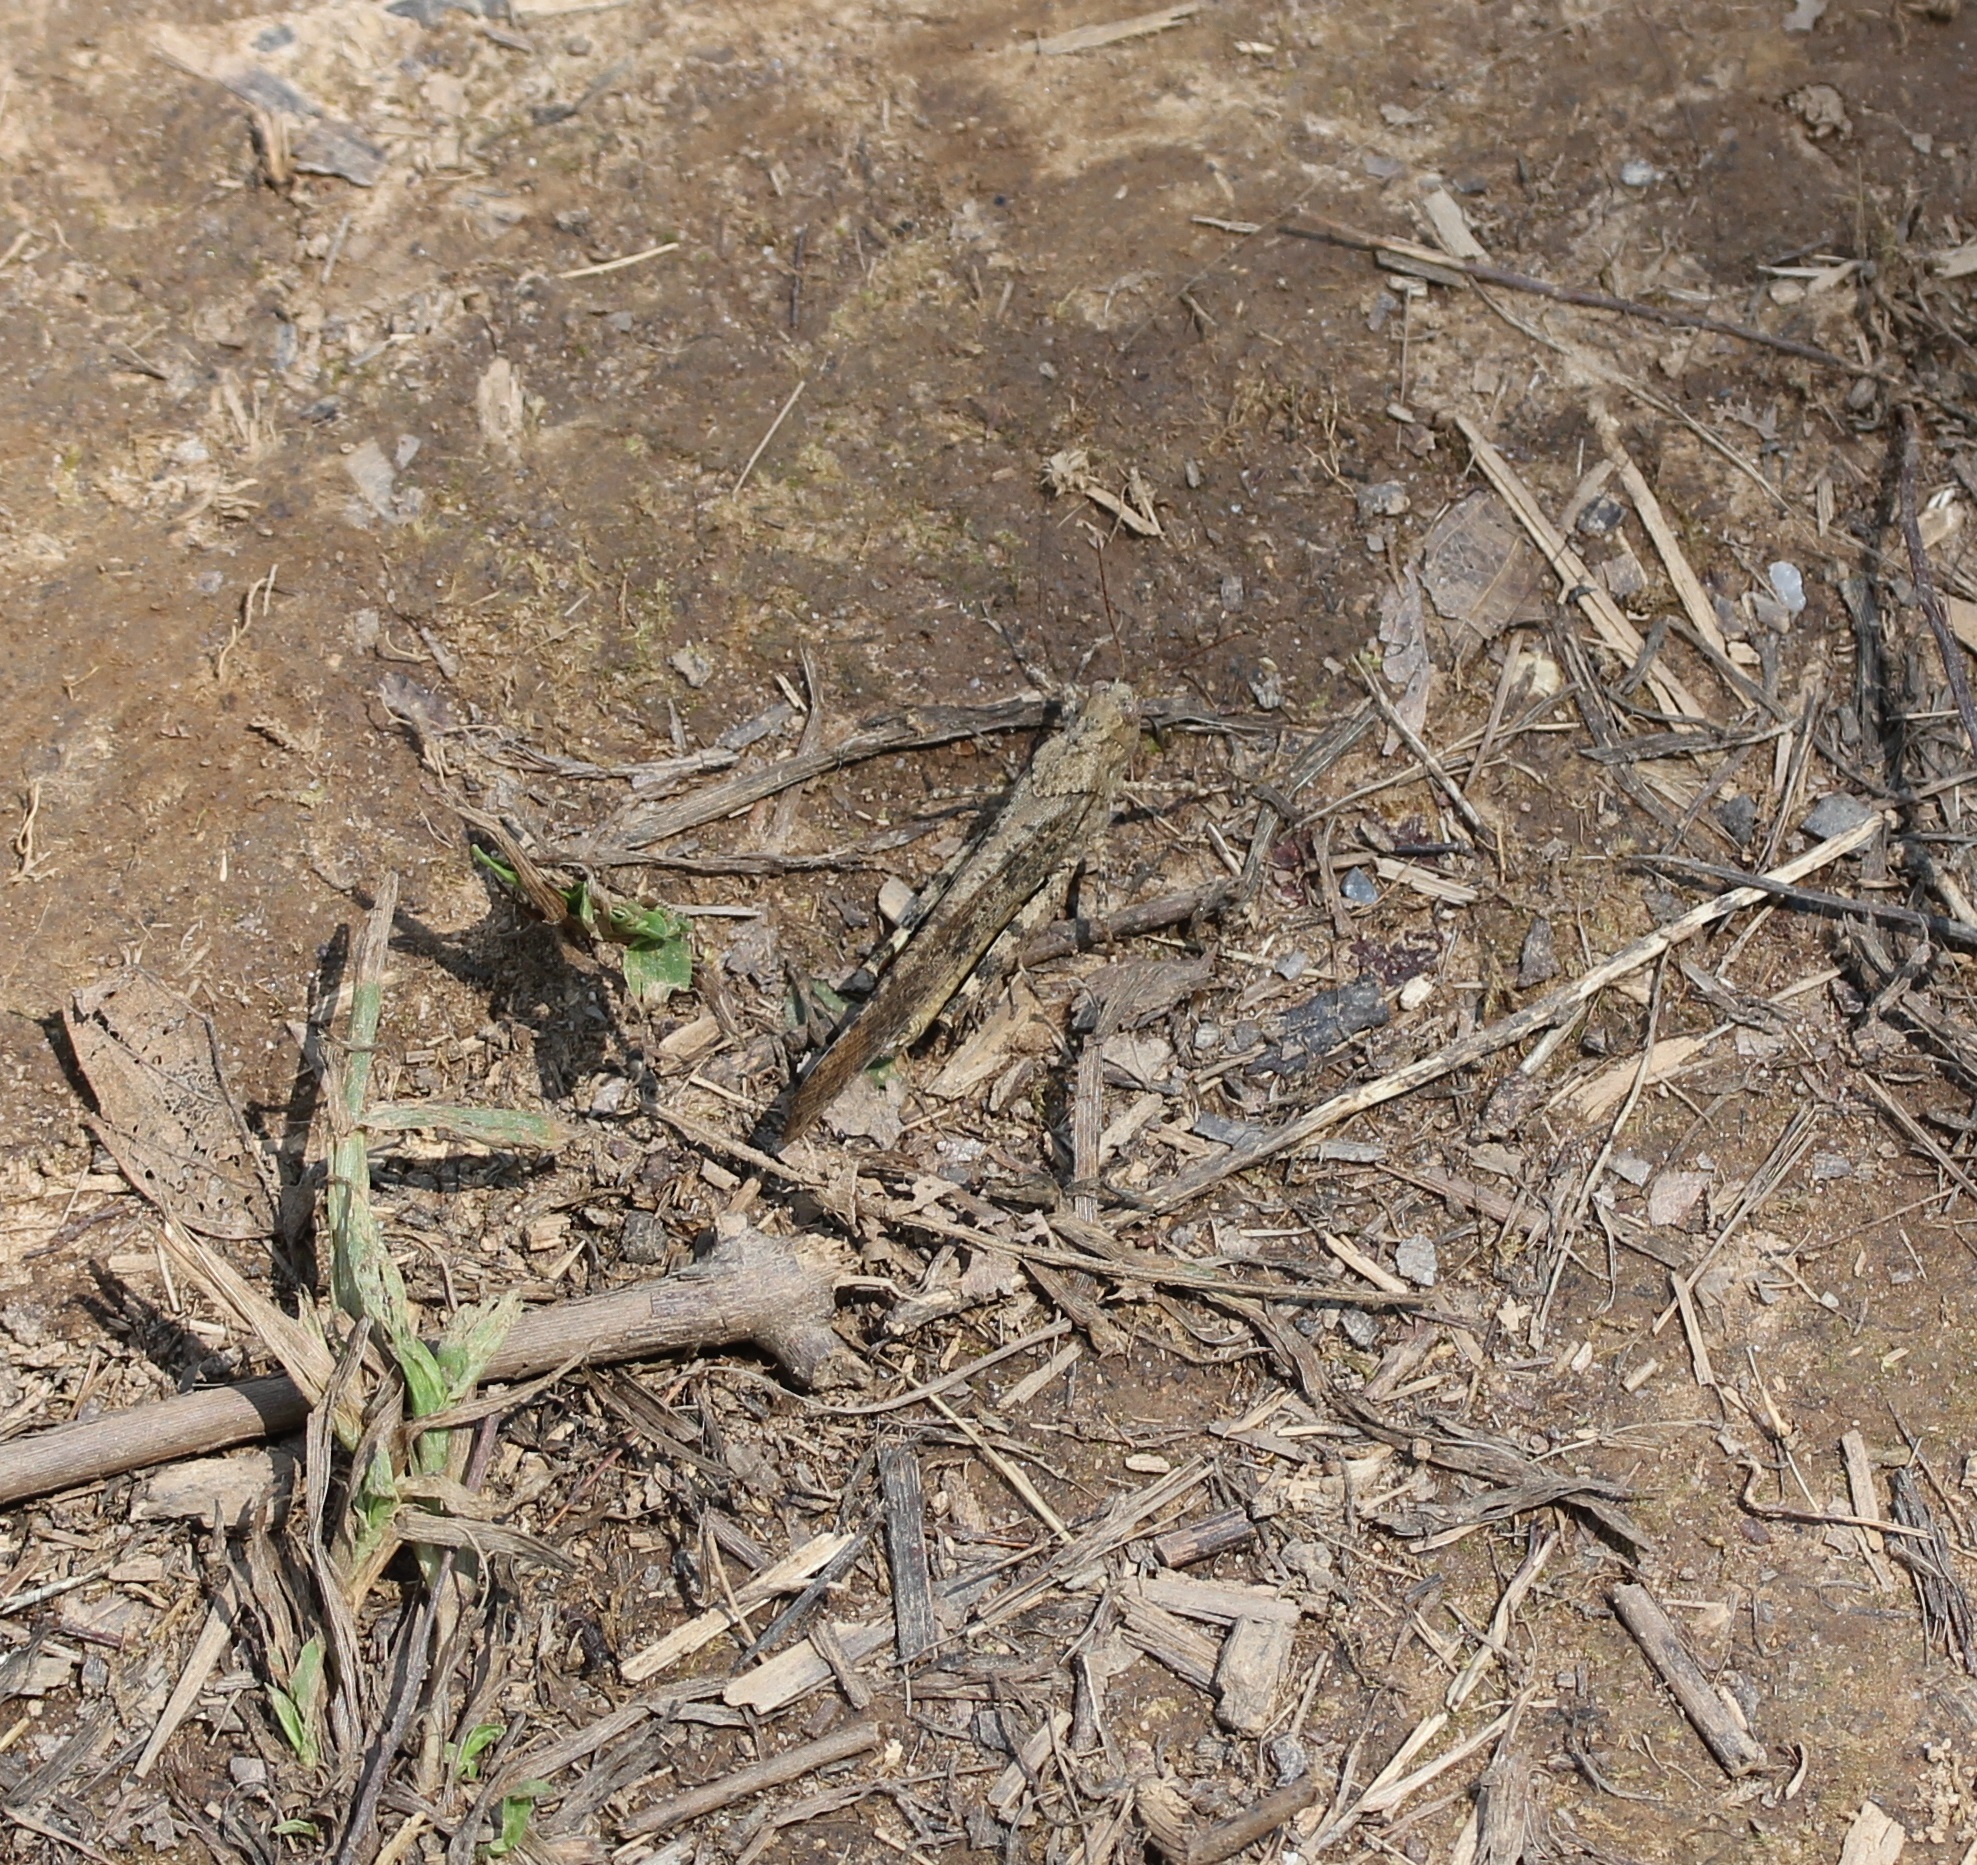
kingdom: Animalia
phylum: Arthropoda
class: Insecta
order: Orthoptera
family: Acrididae
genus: Dissosteira
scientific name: Dissosteira carolina
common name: Carolina grasshopper
